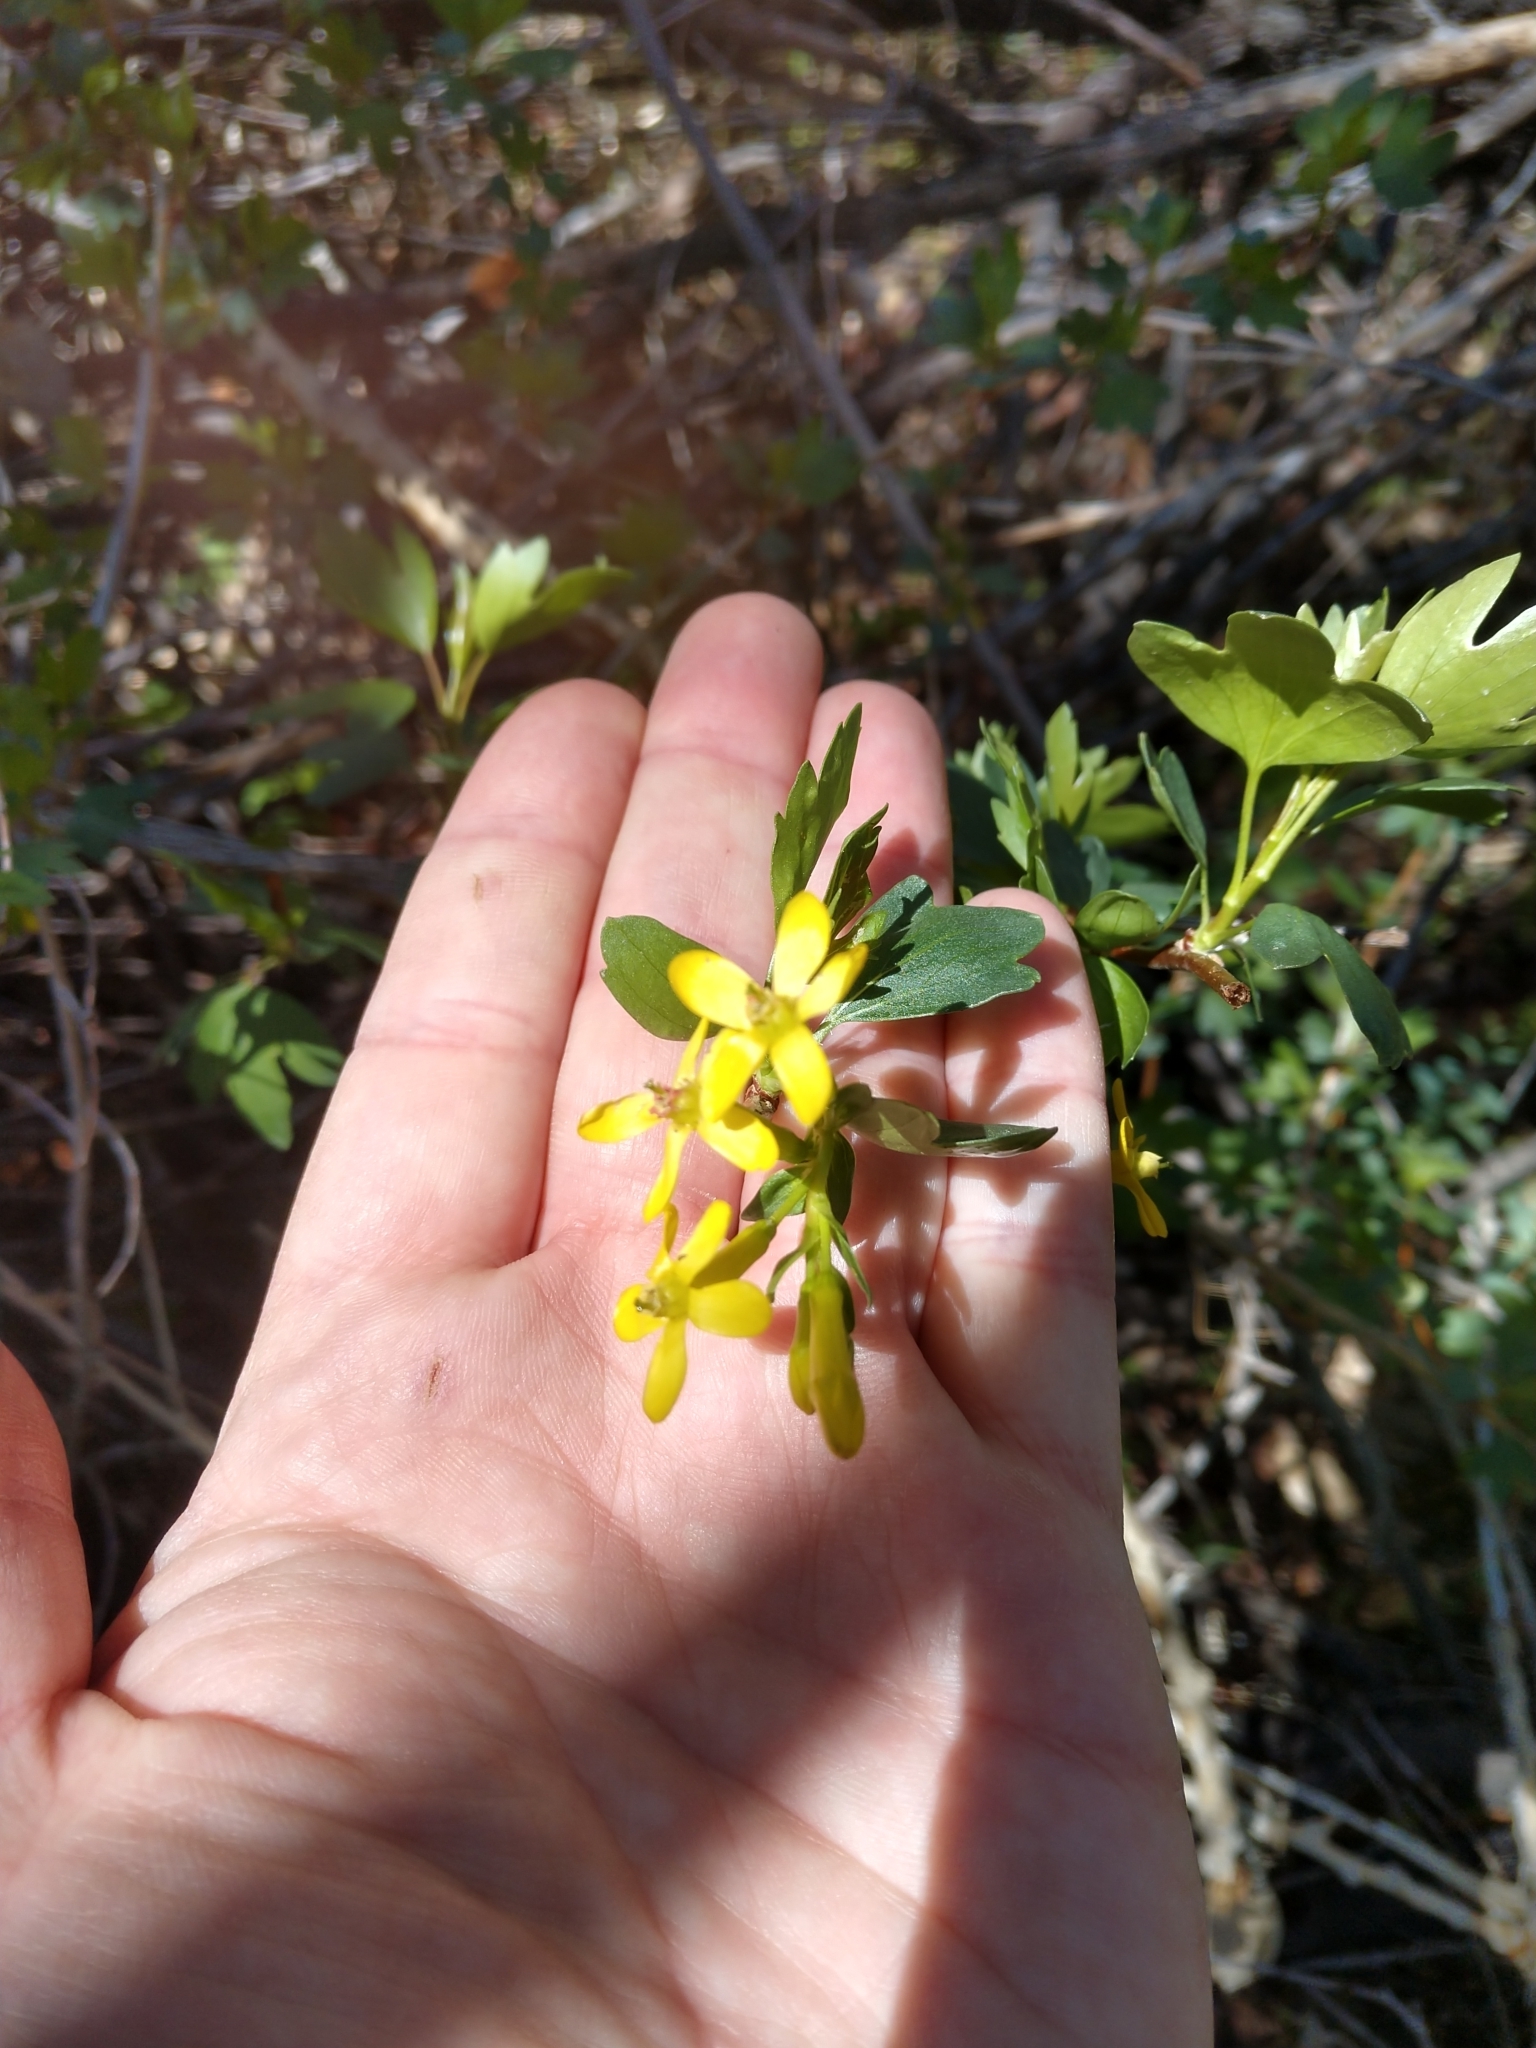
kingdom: Plantae
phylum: Tracheophyta
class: Magnoliopsida
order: Saxifragales
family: Grossulariaceae
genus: Ribes
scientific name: Ribes aureum
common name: Golden currant
